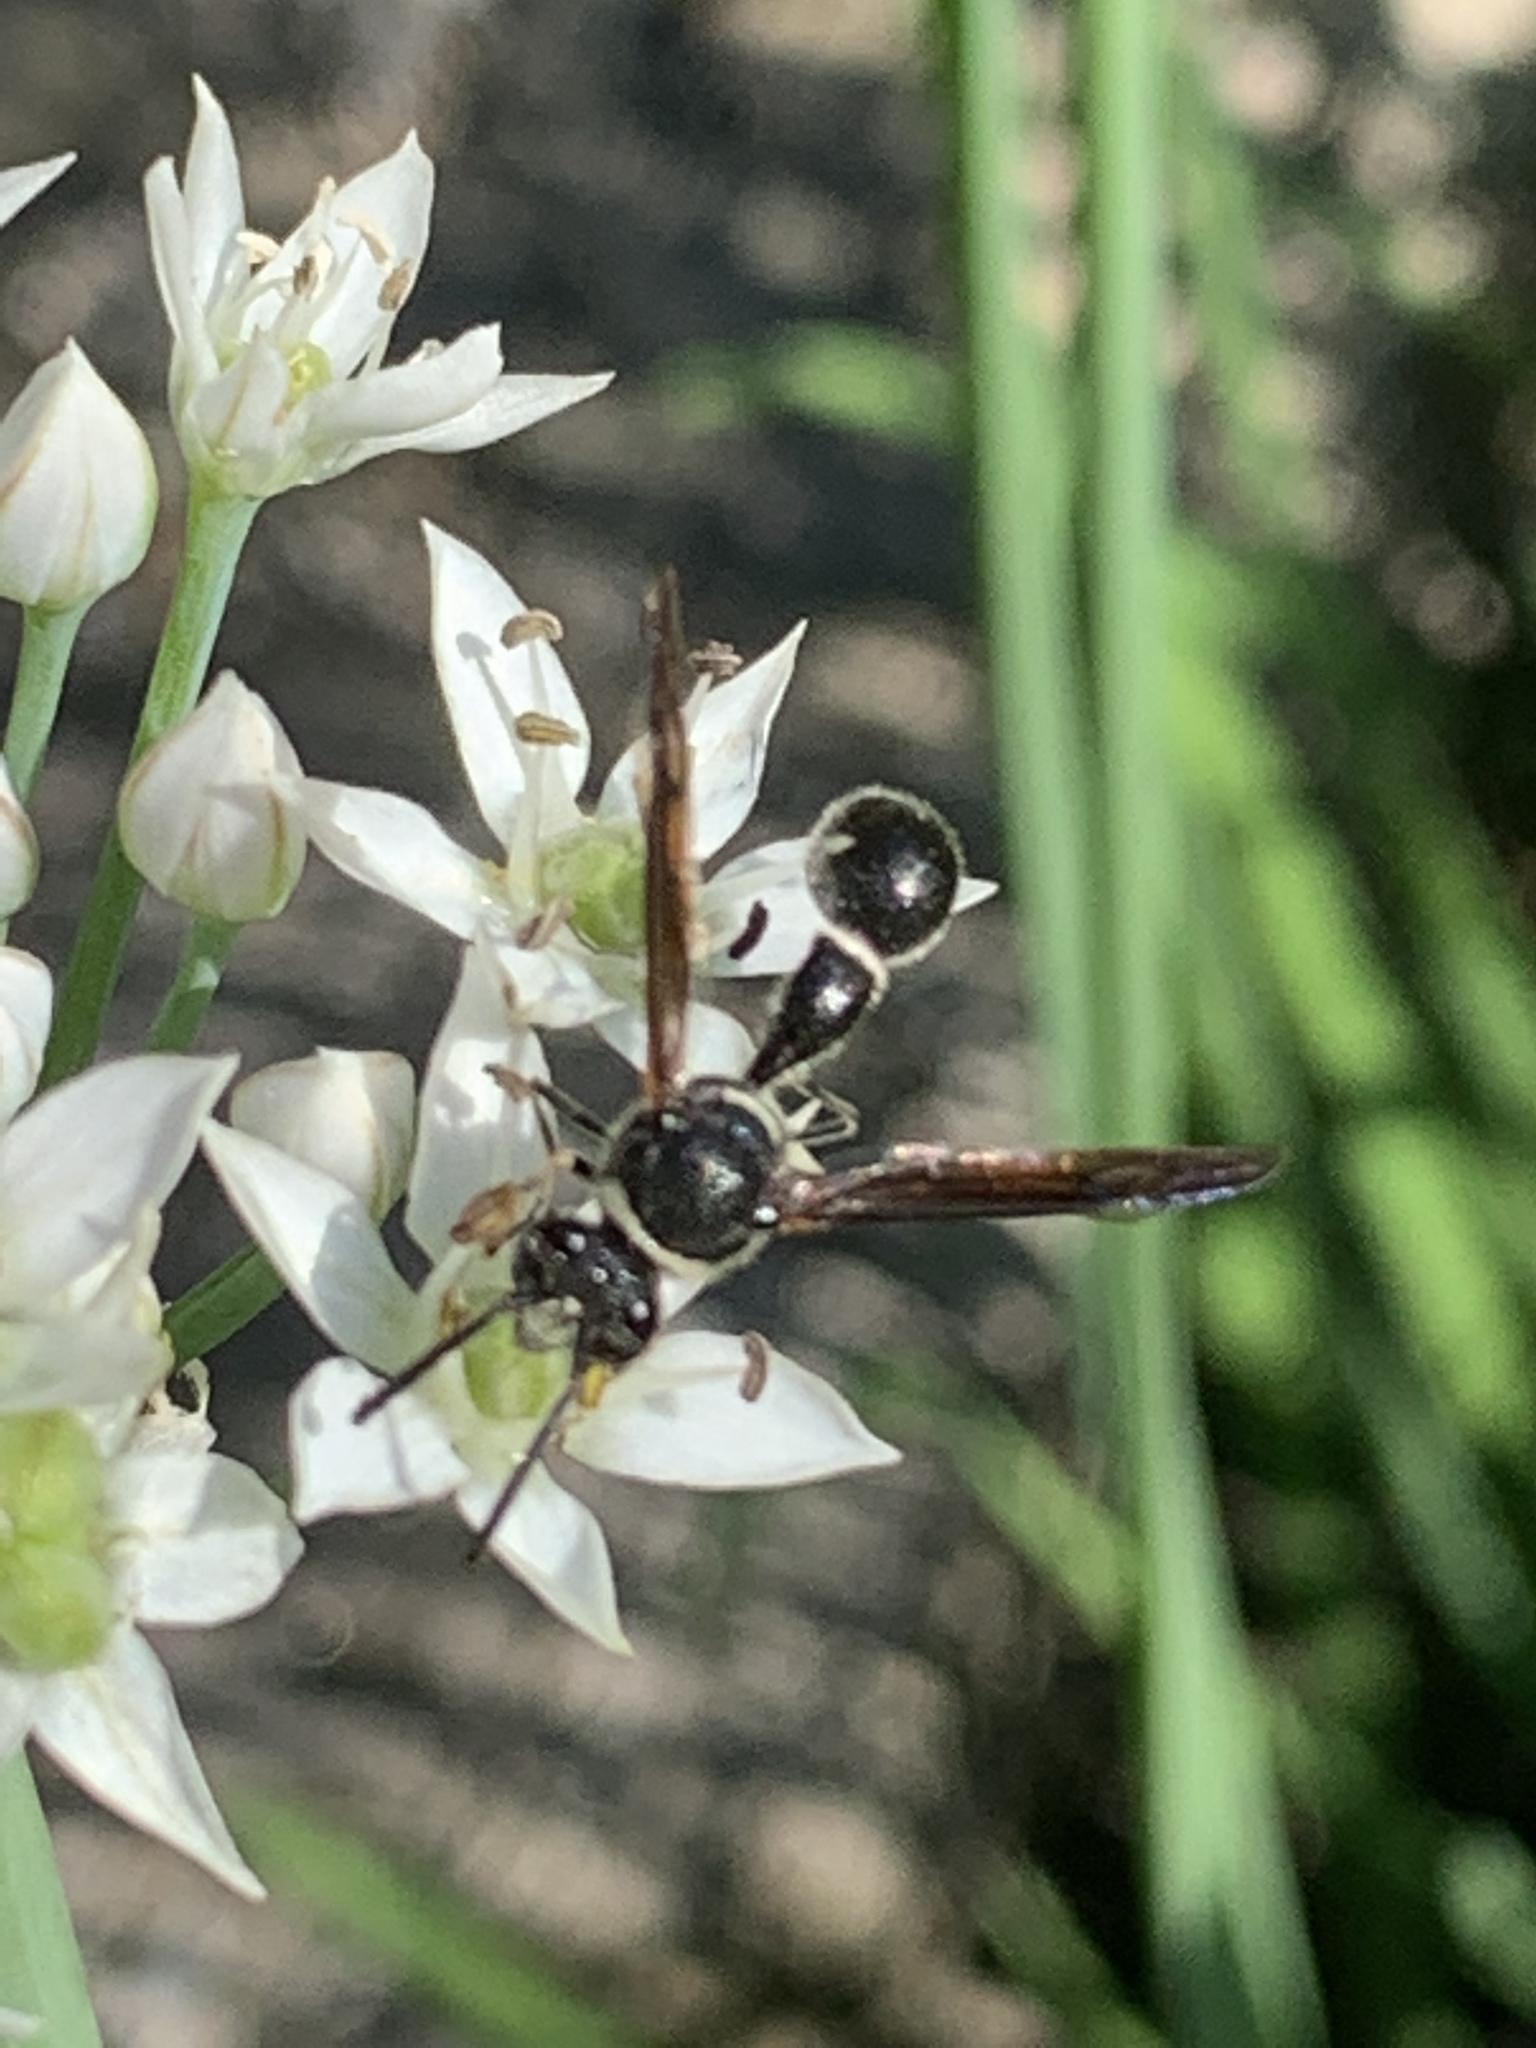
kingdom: Animalia
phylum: Arthropoda
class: Insecta
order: Hymenoptera
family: Vespidae
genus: Eumenes
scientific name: Eumenes fraternus
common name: Fraternal potter wasp
